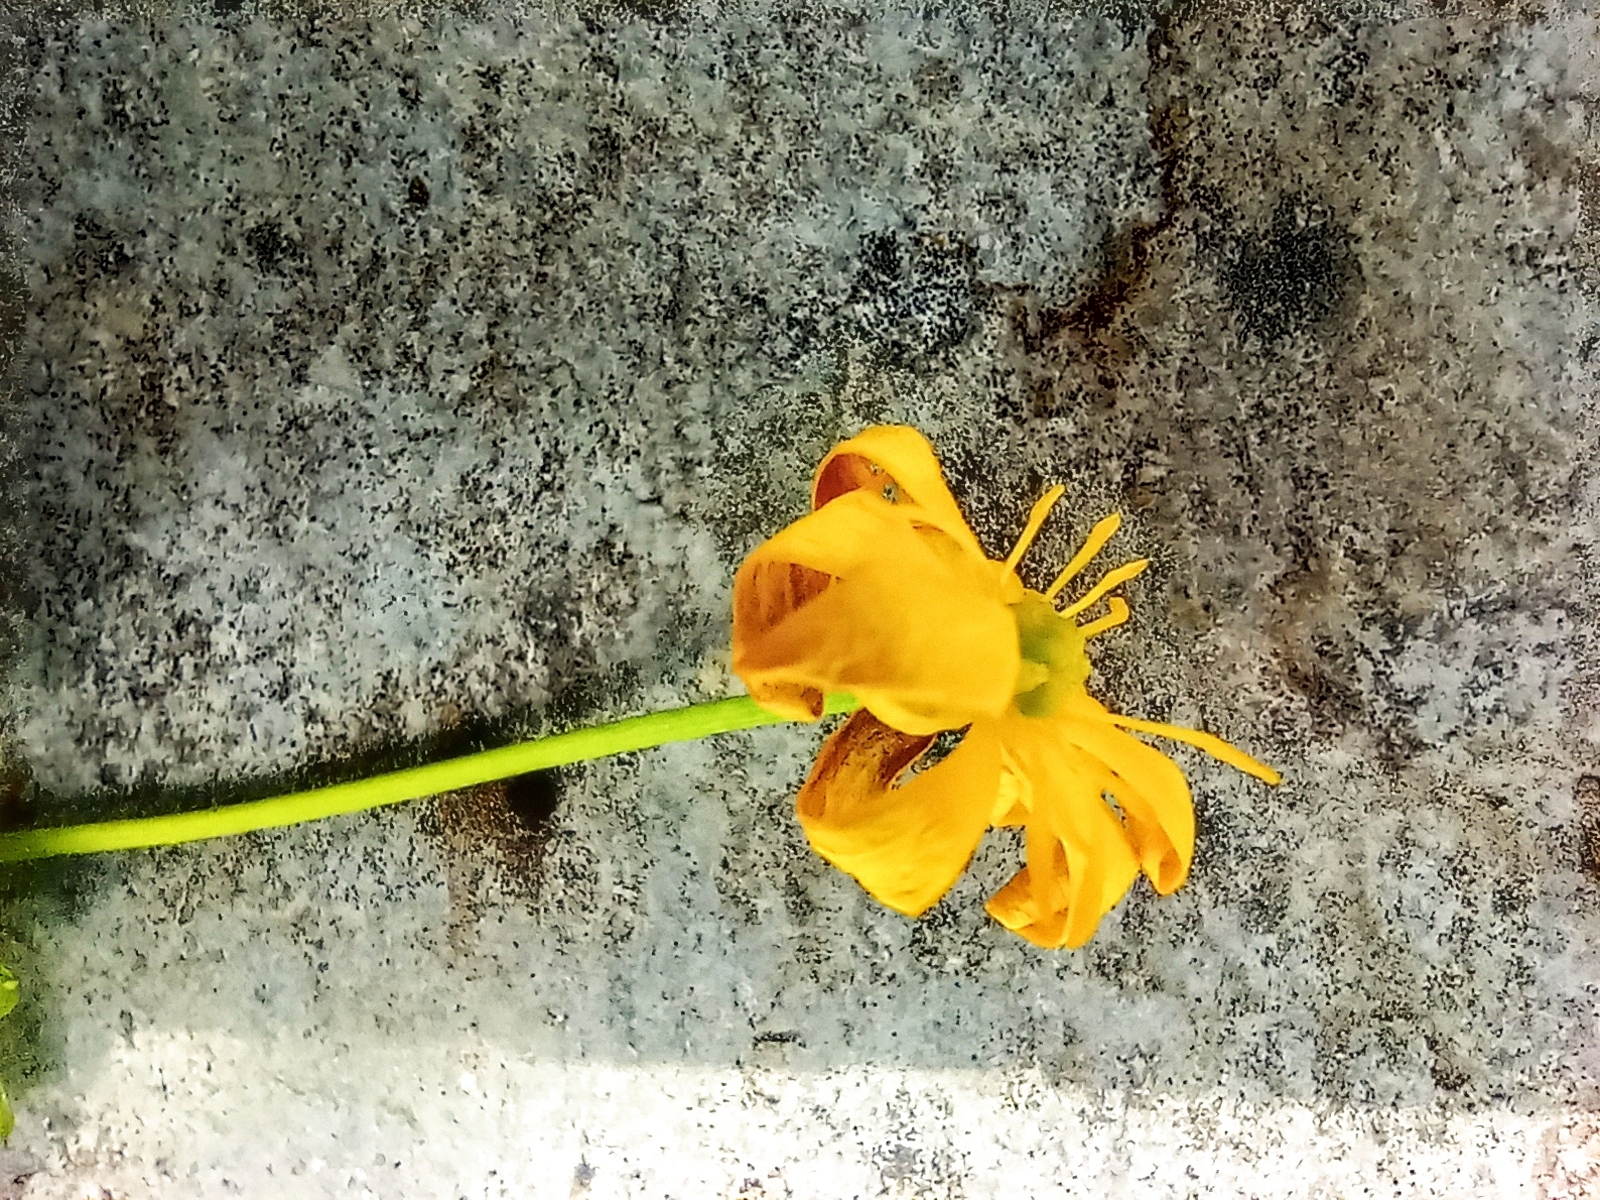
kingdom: Plantae
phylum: Tracheophyta
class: Magnoliopsida
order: Ranunculales
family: Ranunculaceae
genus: Ficaria
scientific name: Ficaria verna
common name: Lesser celandine
